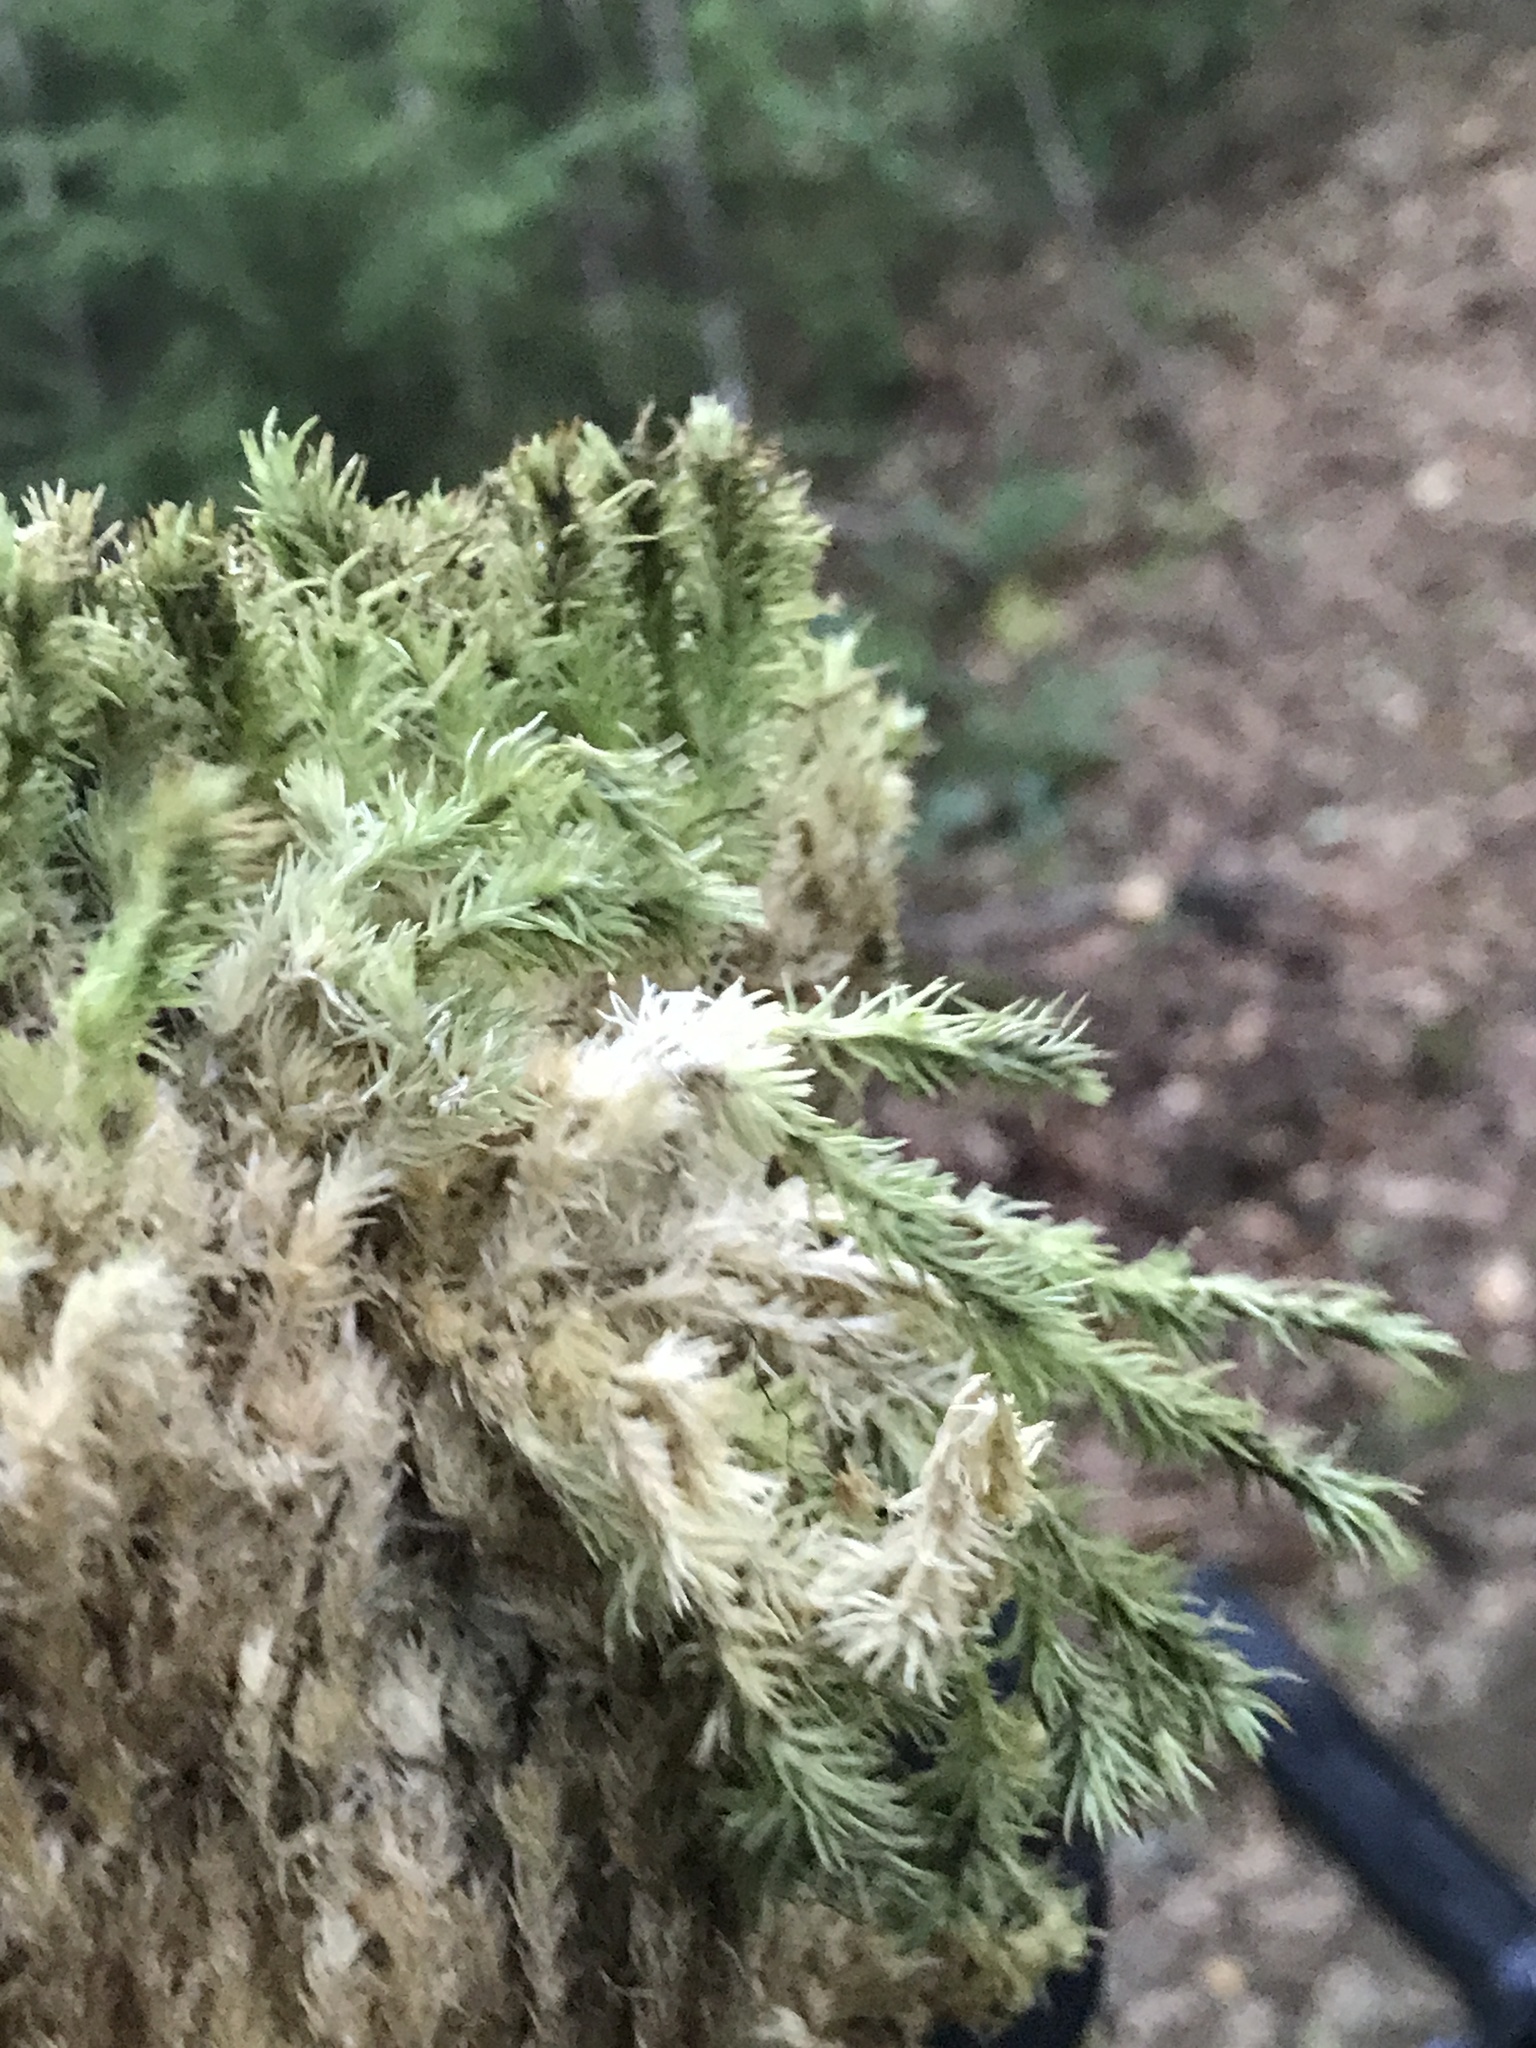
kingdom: Plantae
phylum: Bryophyta
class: Bryopsida
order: Dicranales
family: Leucobryaceae
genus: Leucobryum
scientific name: Leucobryum glaucum
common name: Large white-moss
